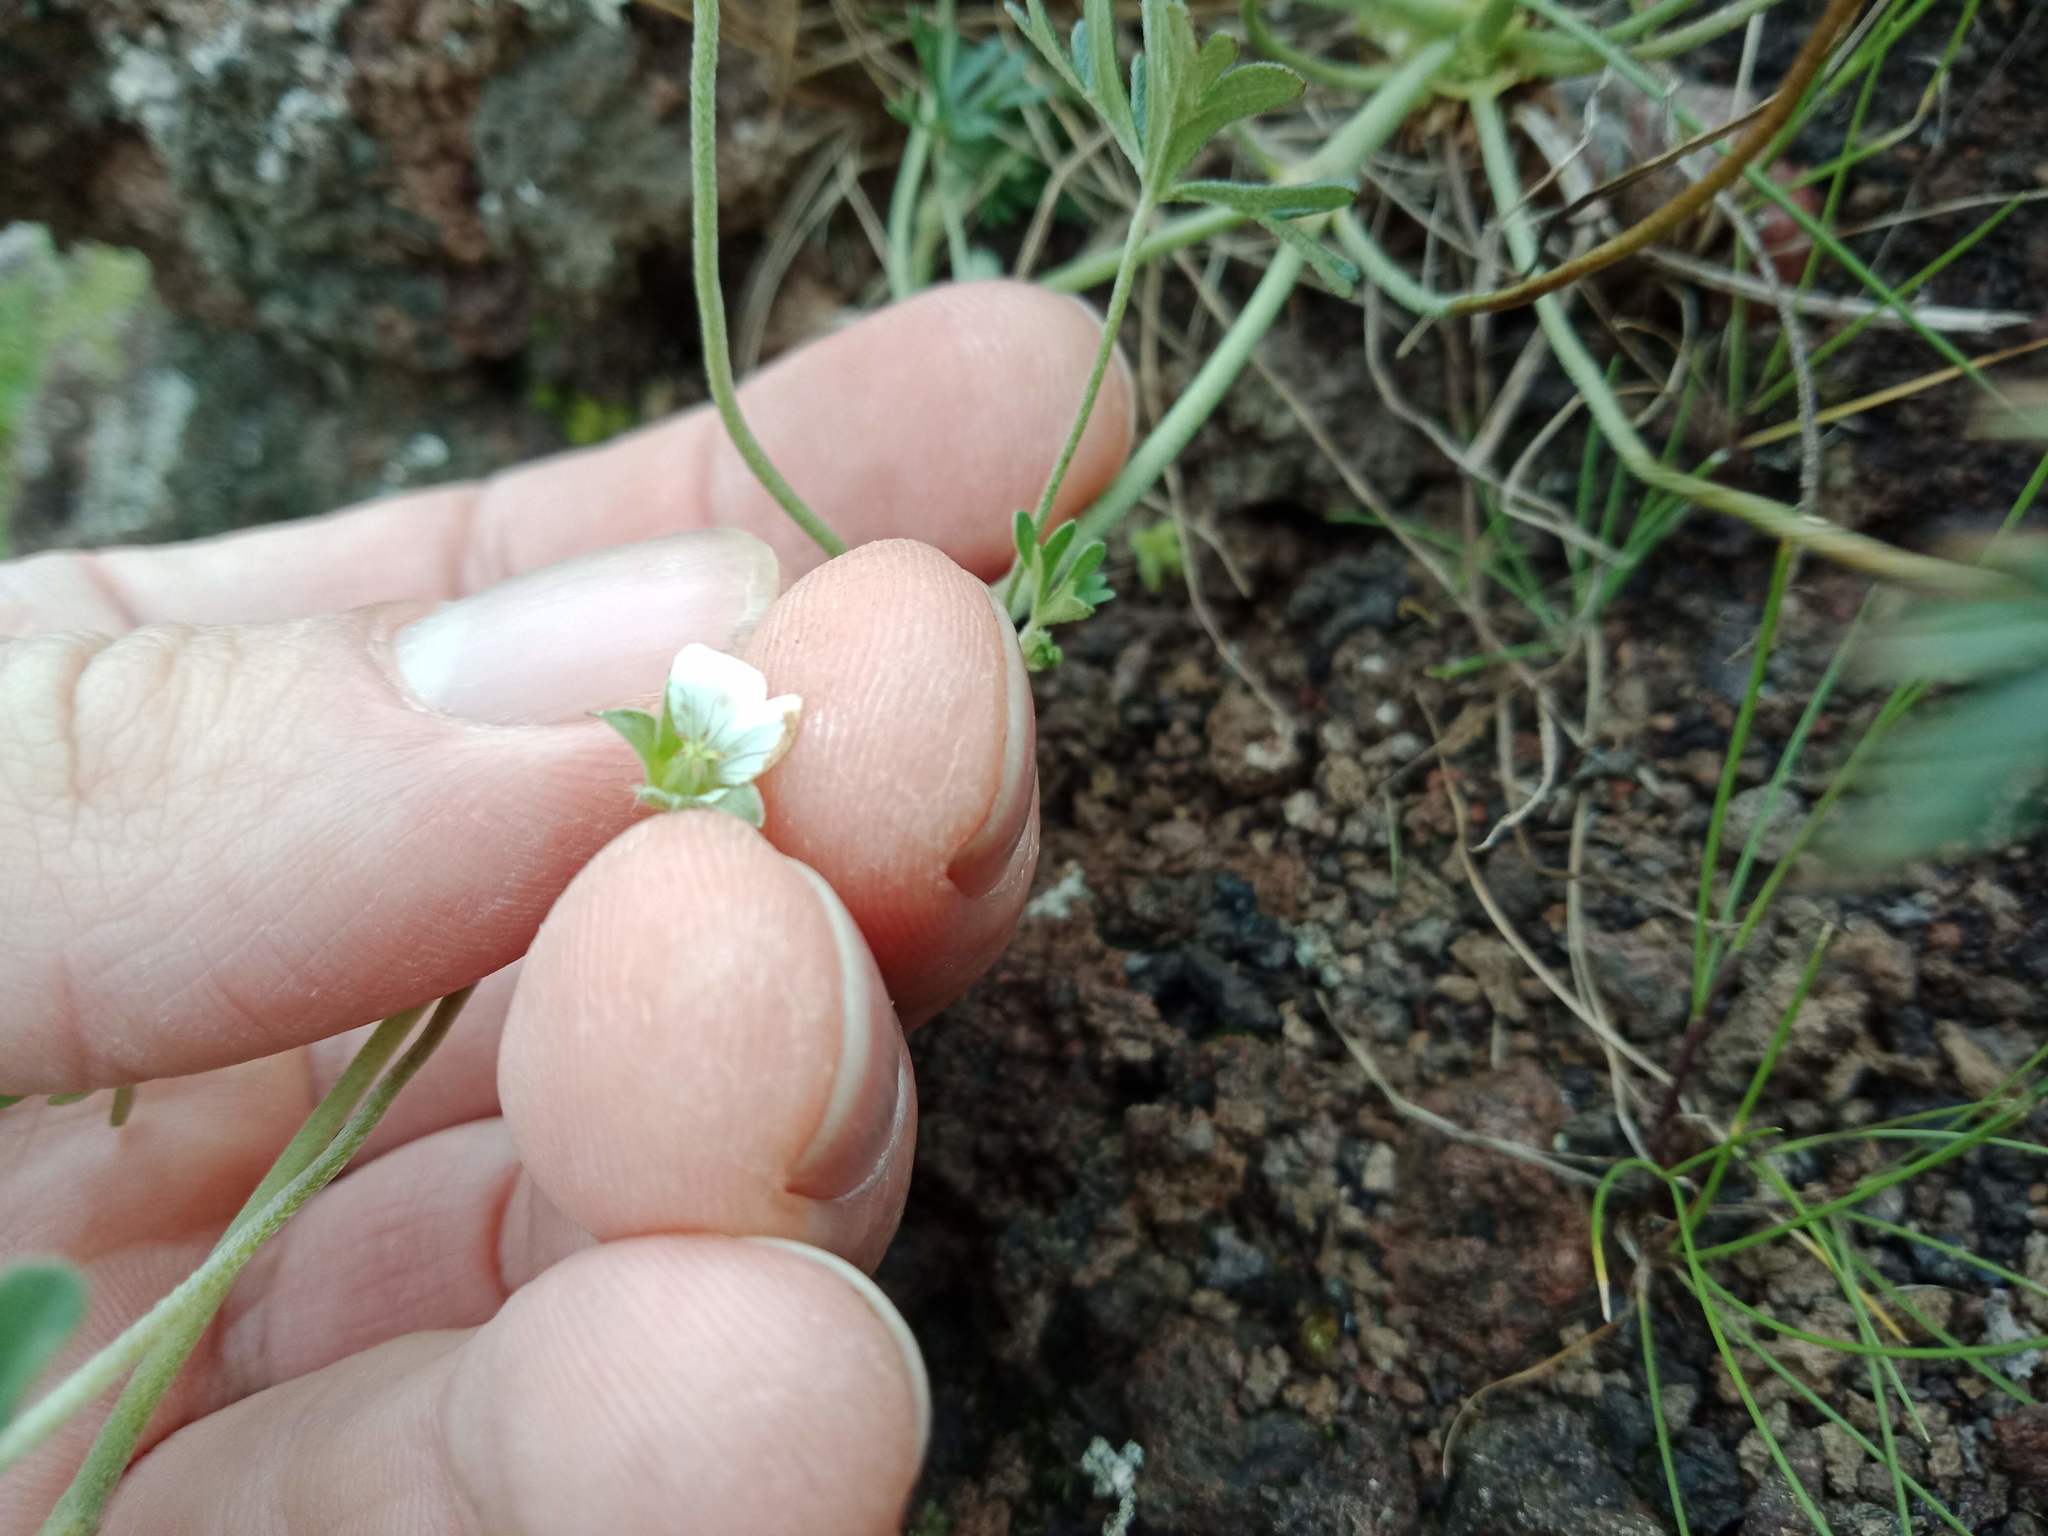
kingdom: Plantae
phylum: Tracheophyta
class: Magnoliopsida
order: Geraniales
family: Geraniaceae
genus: Geranium
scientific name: Geranium retrorsum
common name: New zealand geranium
